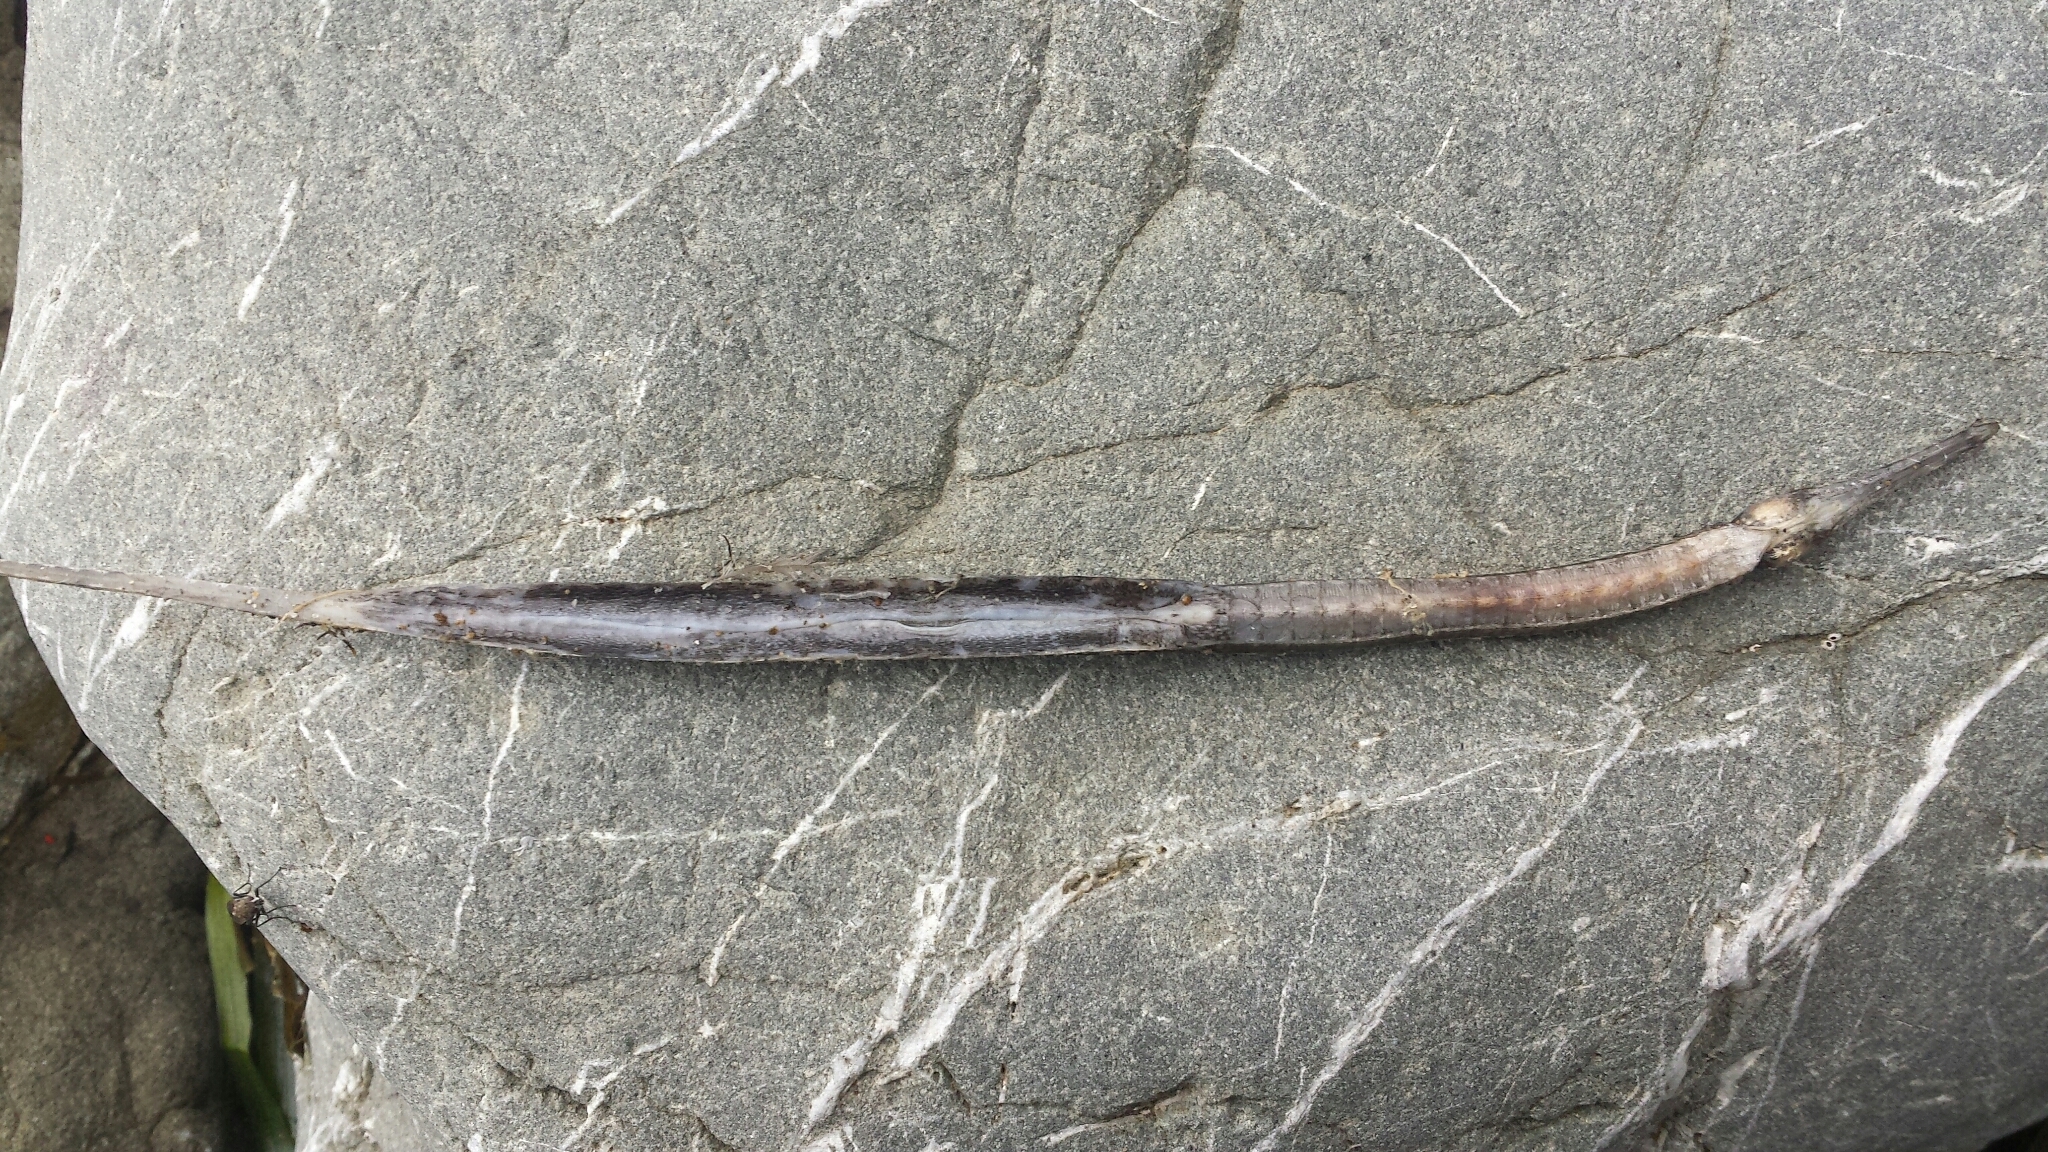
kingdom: Animalia
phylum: Chordata
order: Syngnathiformes
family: Syngnathidae
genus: Syngnathus
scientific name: Syngnathus californiensis
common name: Great pipefish
